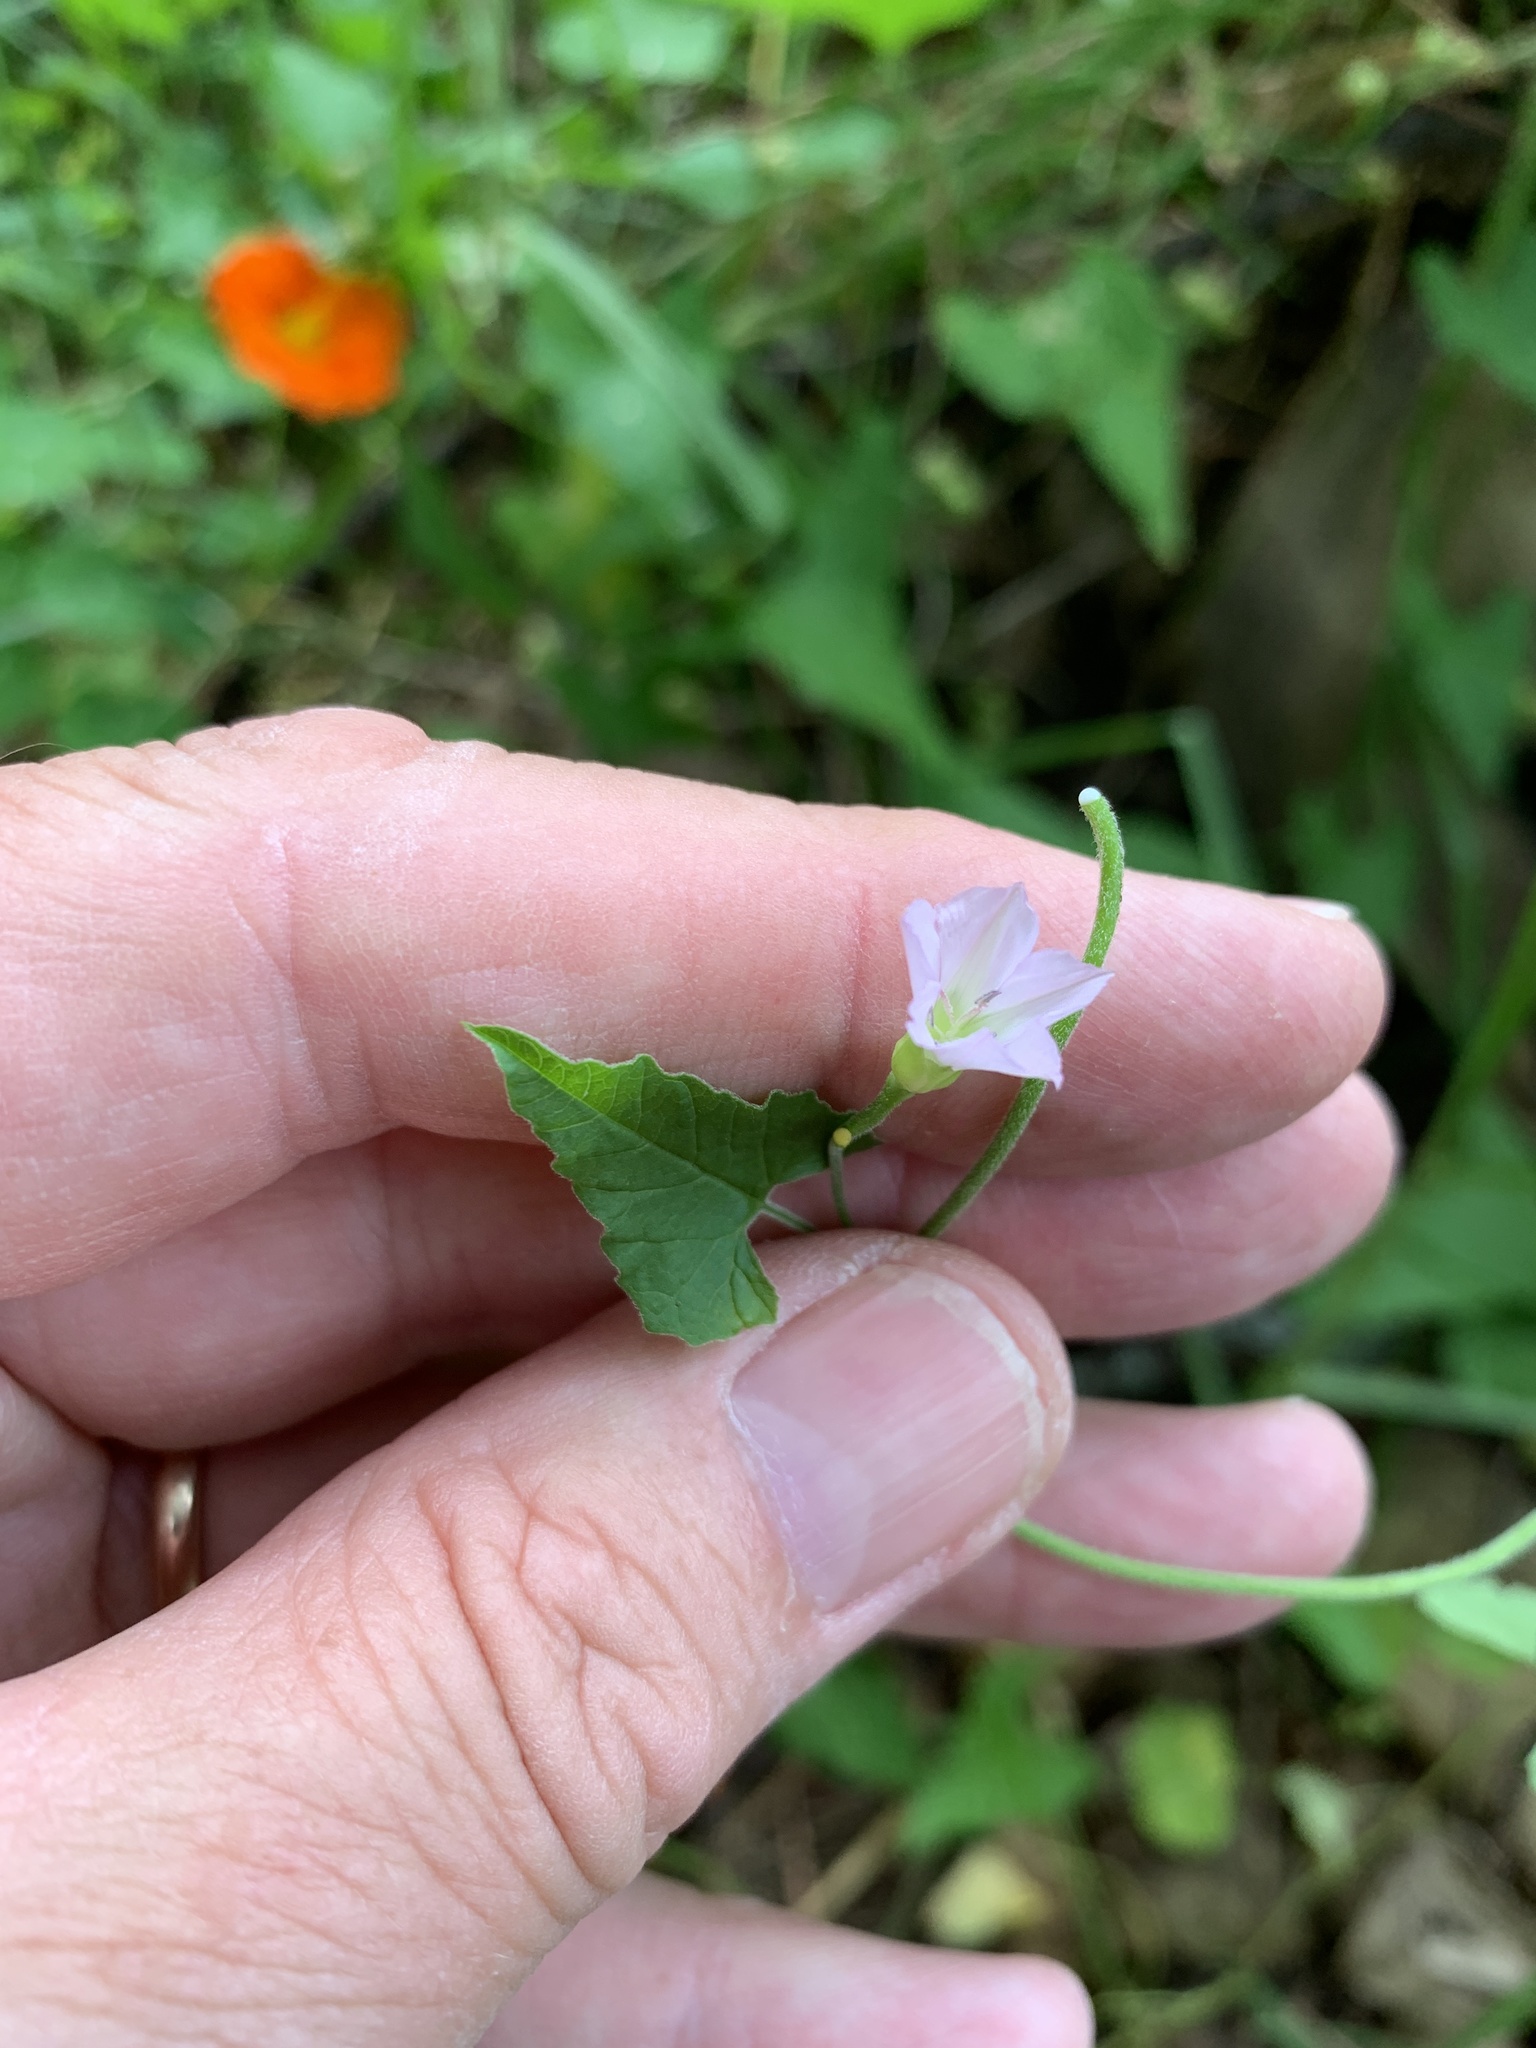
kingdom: Plantae
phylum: Tracheophyta
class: Magnoliopsida
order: Solanales
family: Convolvulaceae
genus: Convolvulus
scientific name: Convolvulus farinosus
